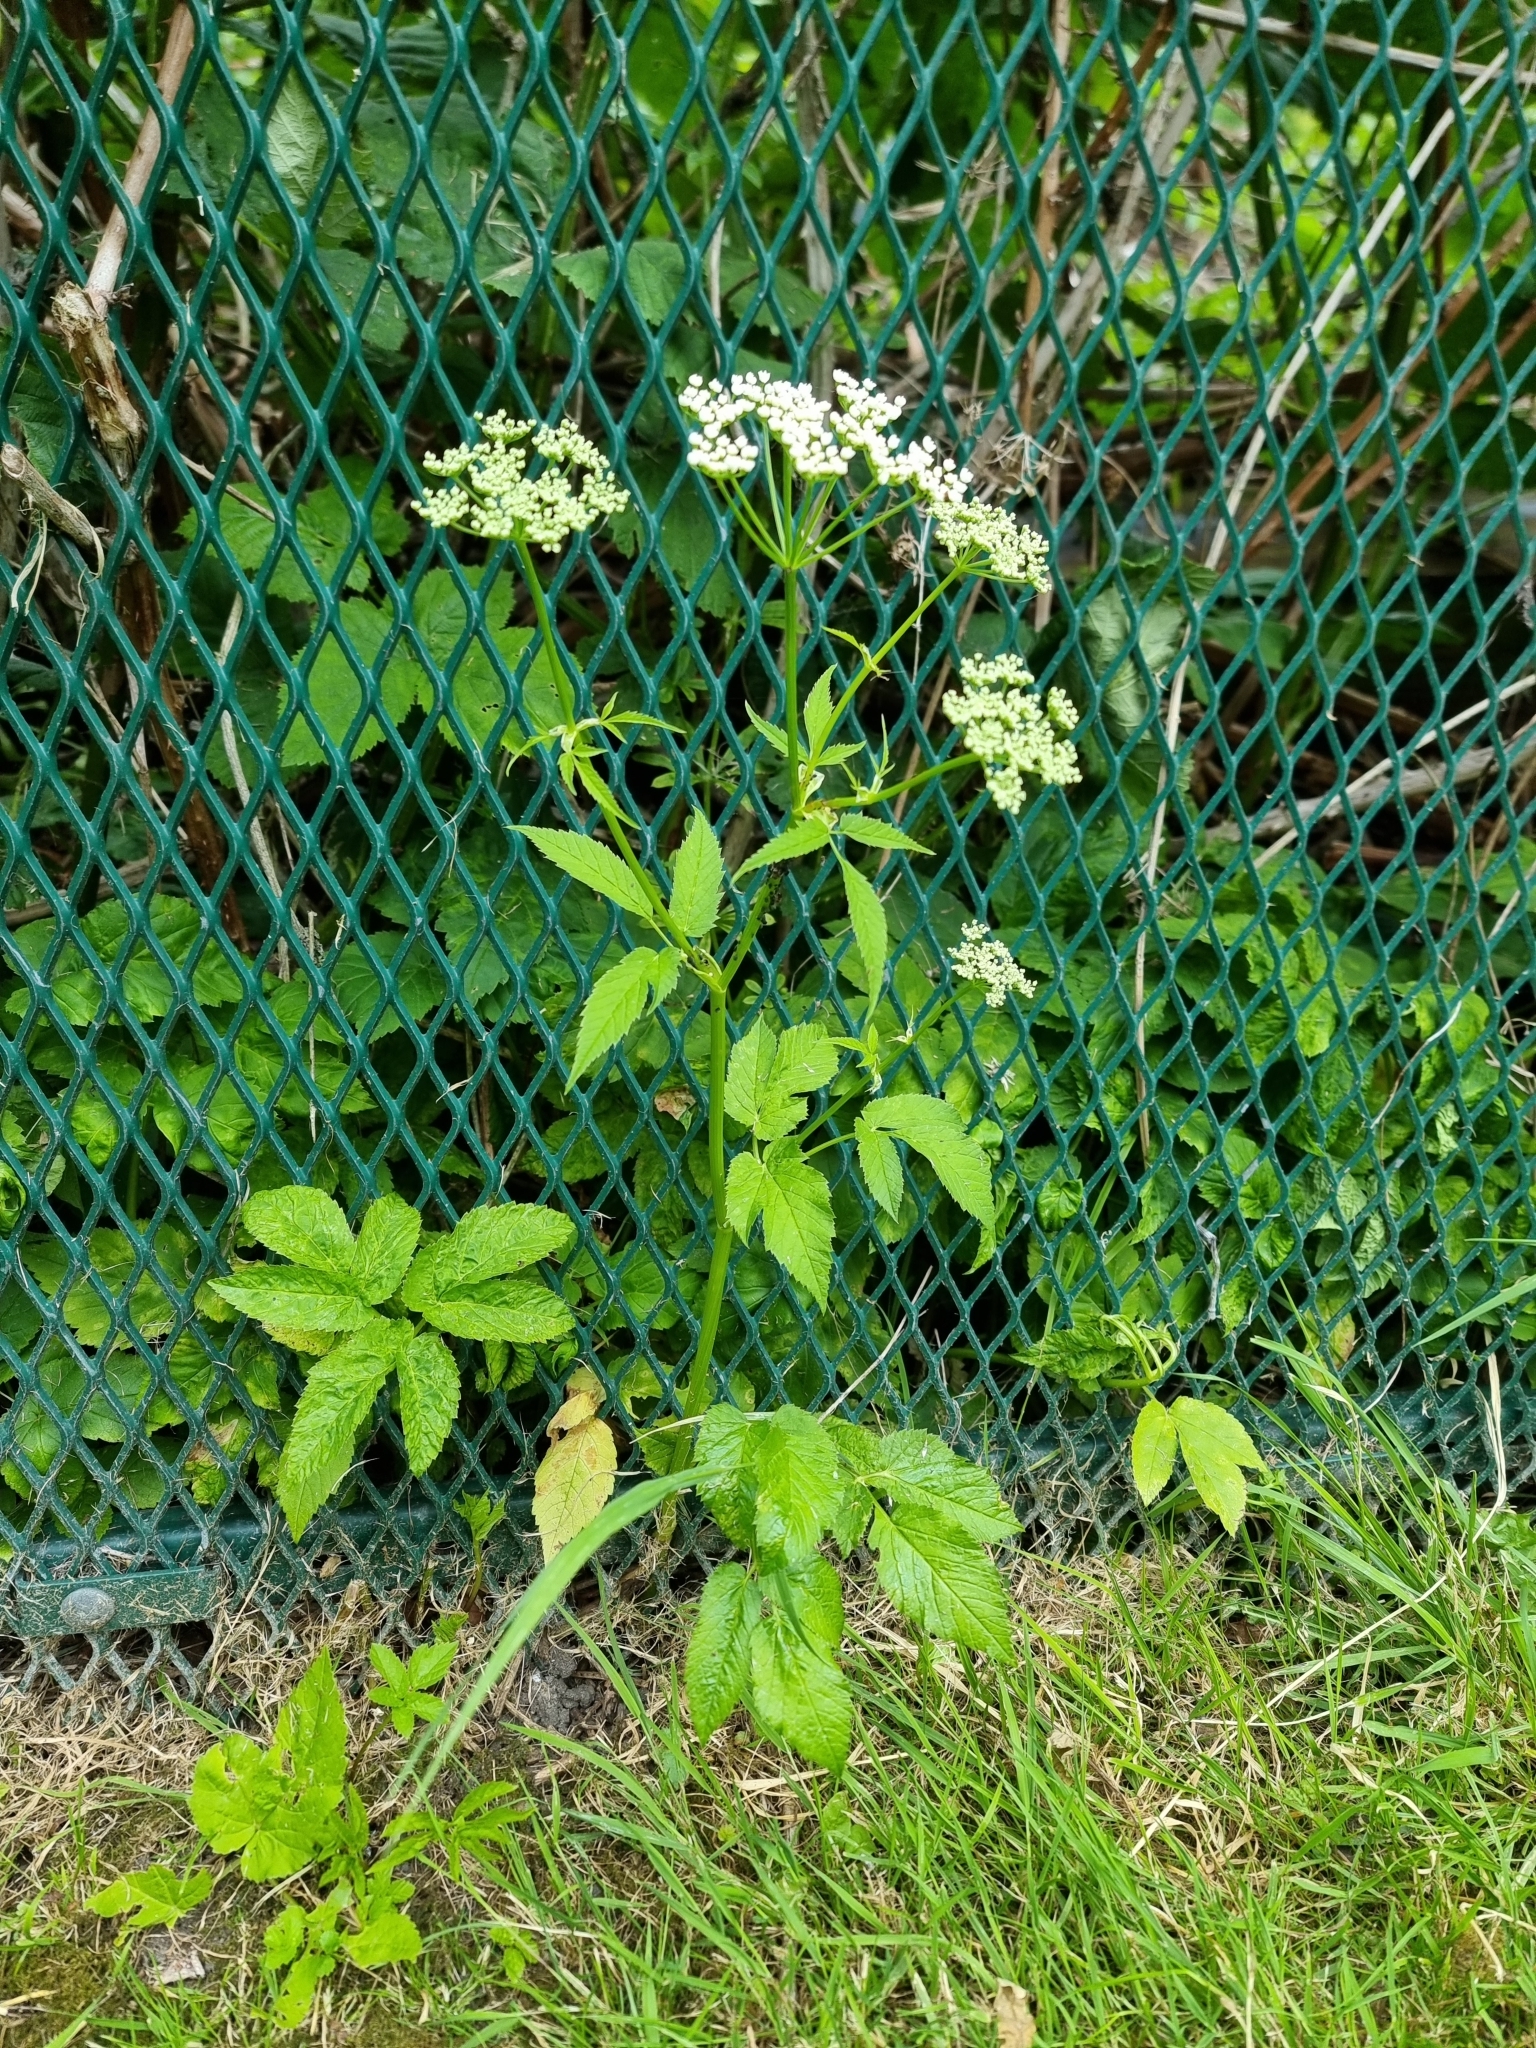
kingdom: Plantae
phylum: Tracheophyta
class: Magnoliopsida
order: Apiales
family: Apiaceae
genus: Aegopodium
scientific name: Aegopodium podagraria
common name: Ground-elder
